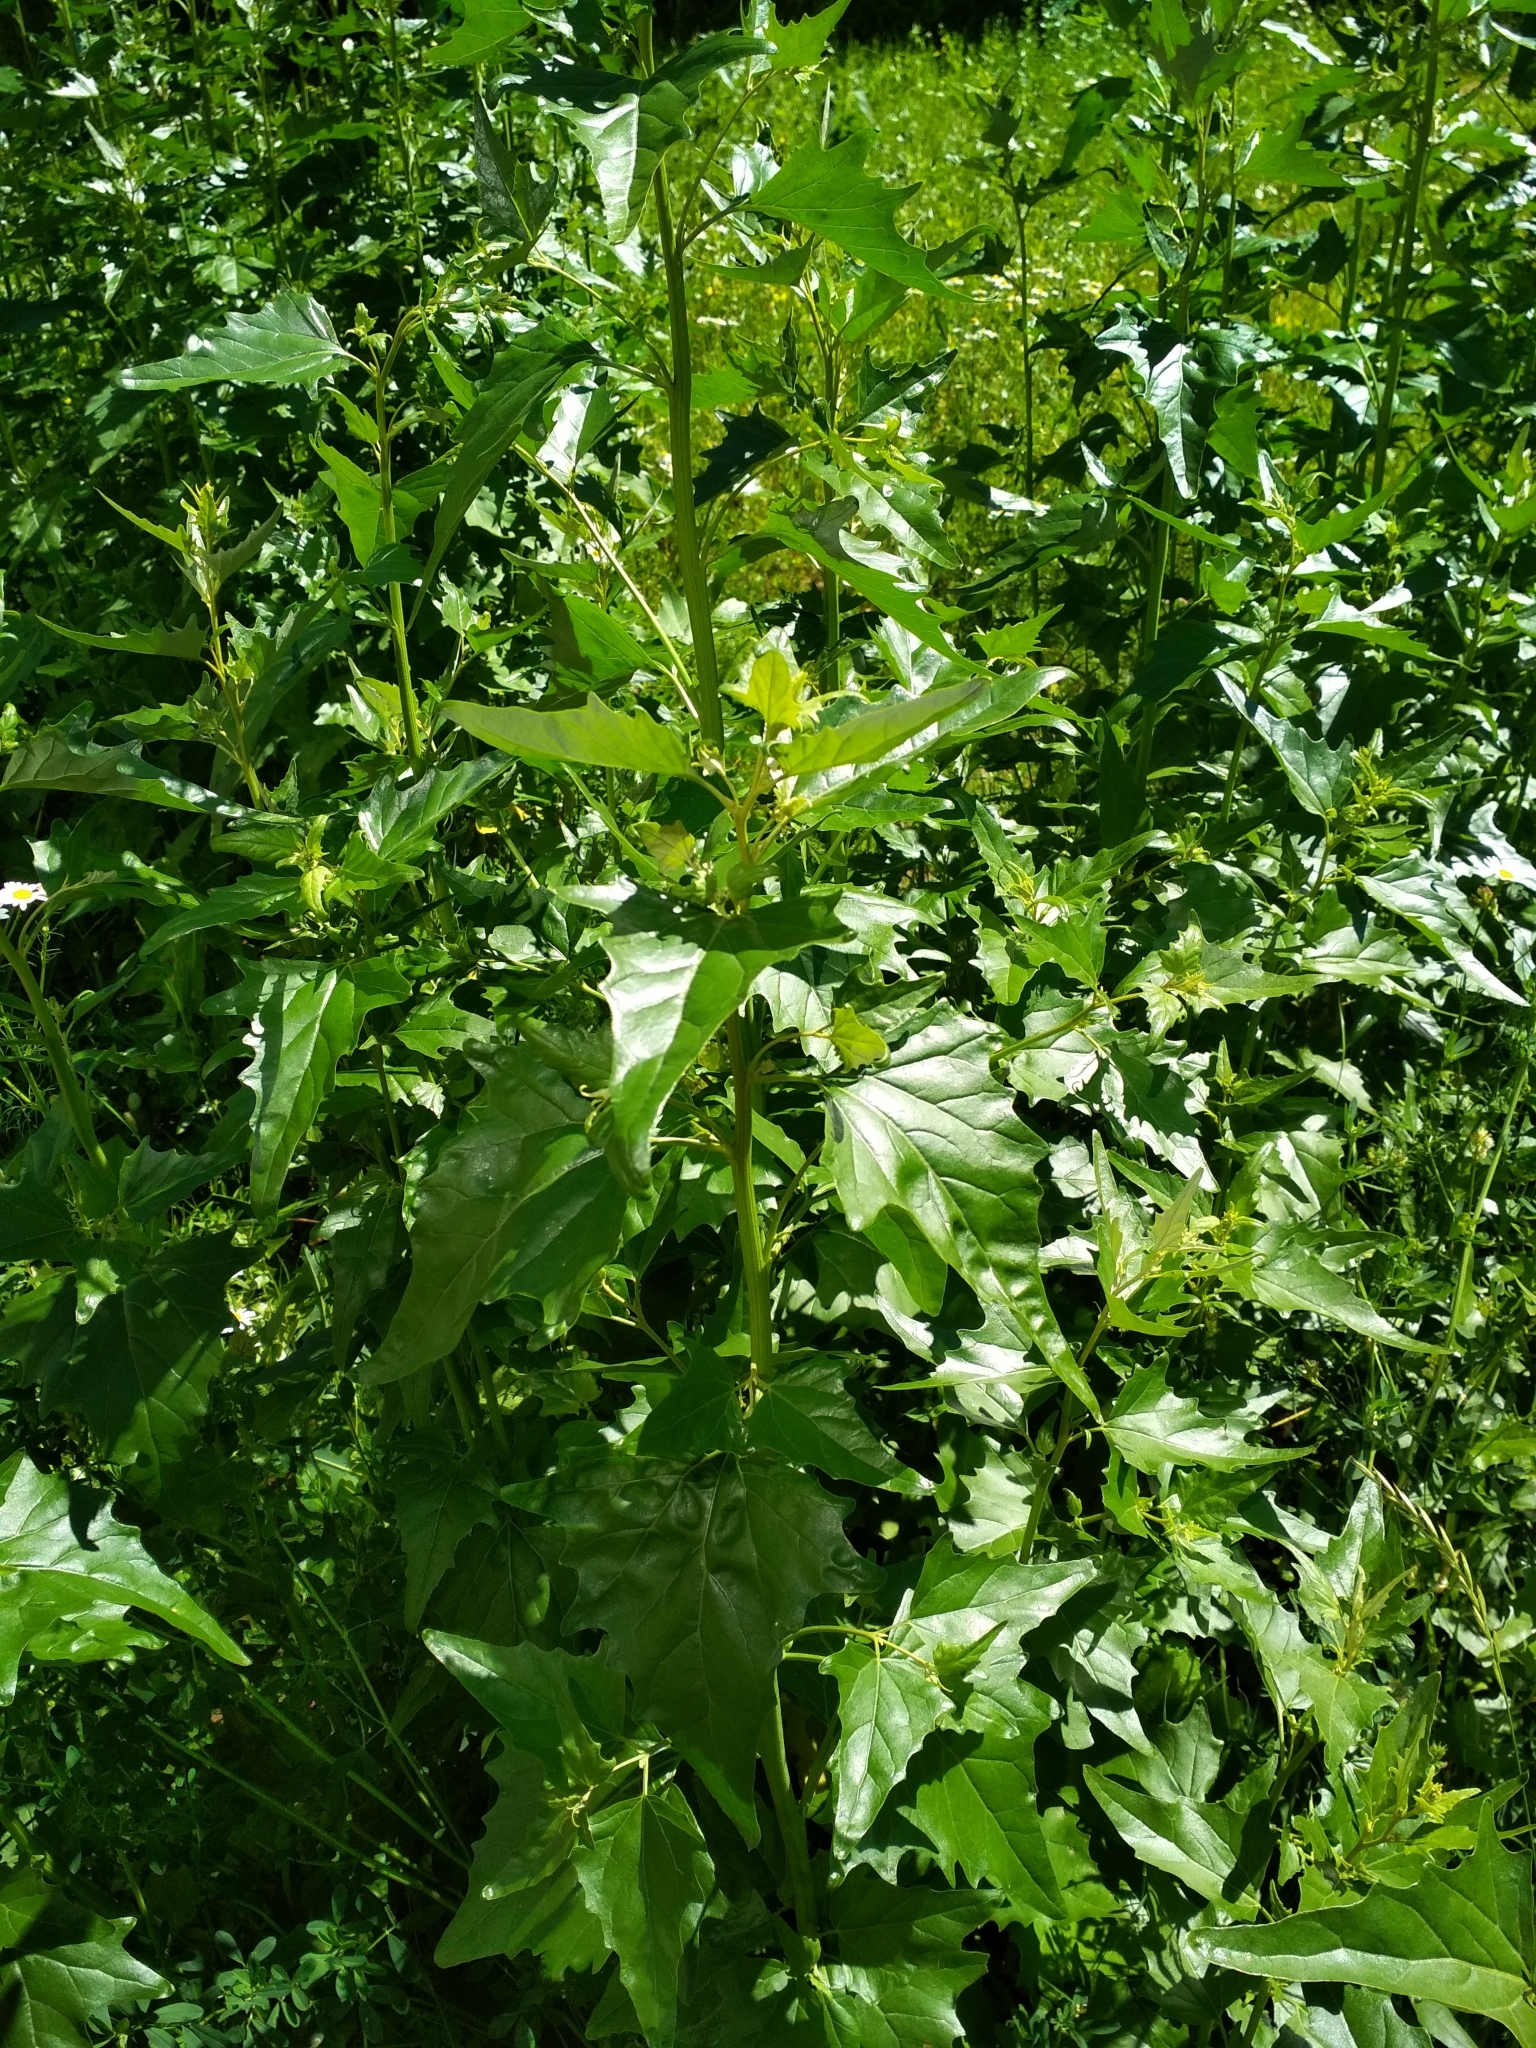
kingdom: Plantae
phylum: Tracheophyta
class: Magnoliopsida
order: Caryophyllales
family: Amaranthaceae
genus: Atriplex
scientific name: Atriplex sagittata
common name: Purple orache
